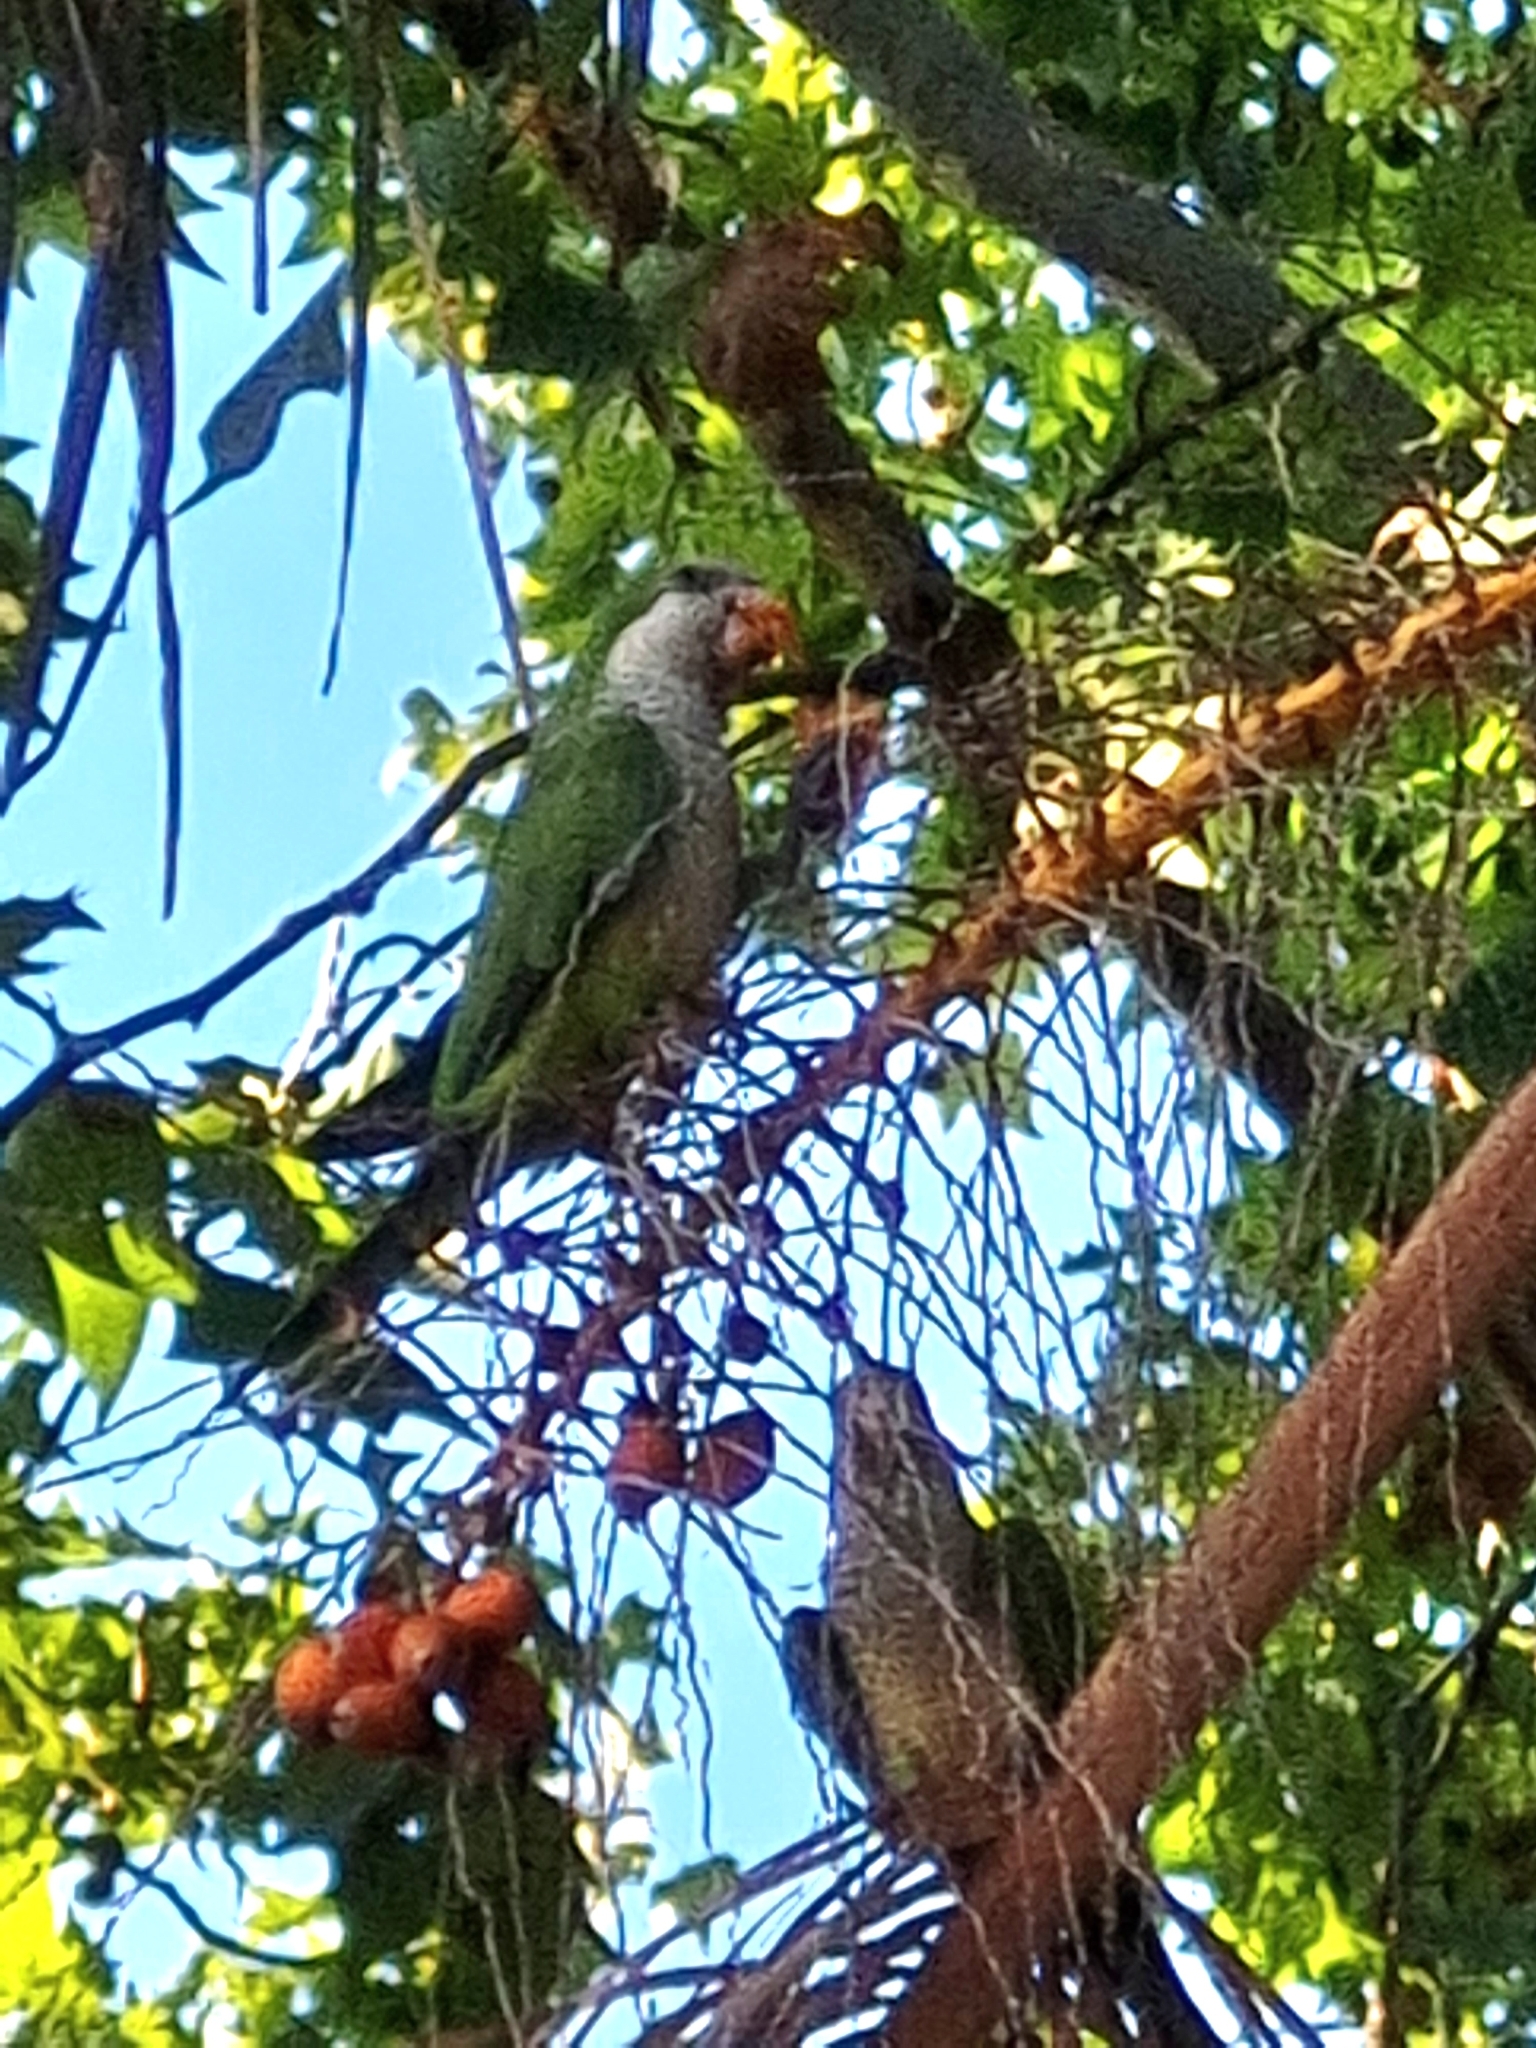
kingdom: Animalia
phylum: Chordata
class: Aves
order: Psittaciformes
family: Psittacidae
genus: Myiopsitta
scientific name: Myiopsitta monachus
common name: Monk parakeet
